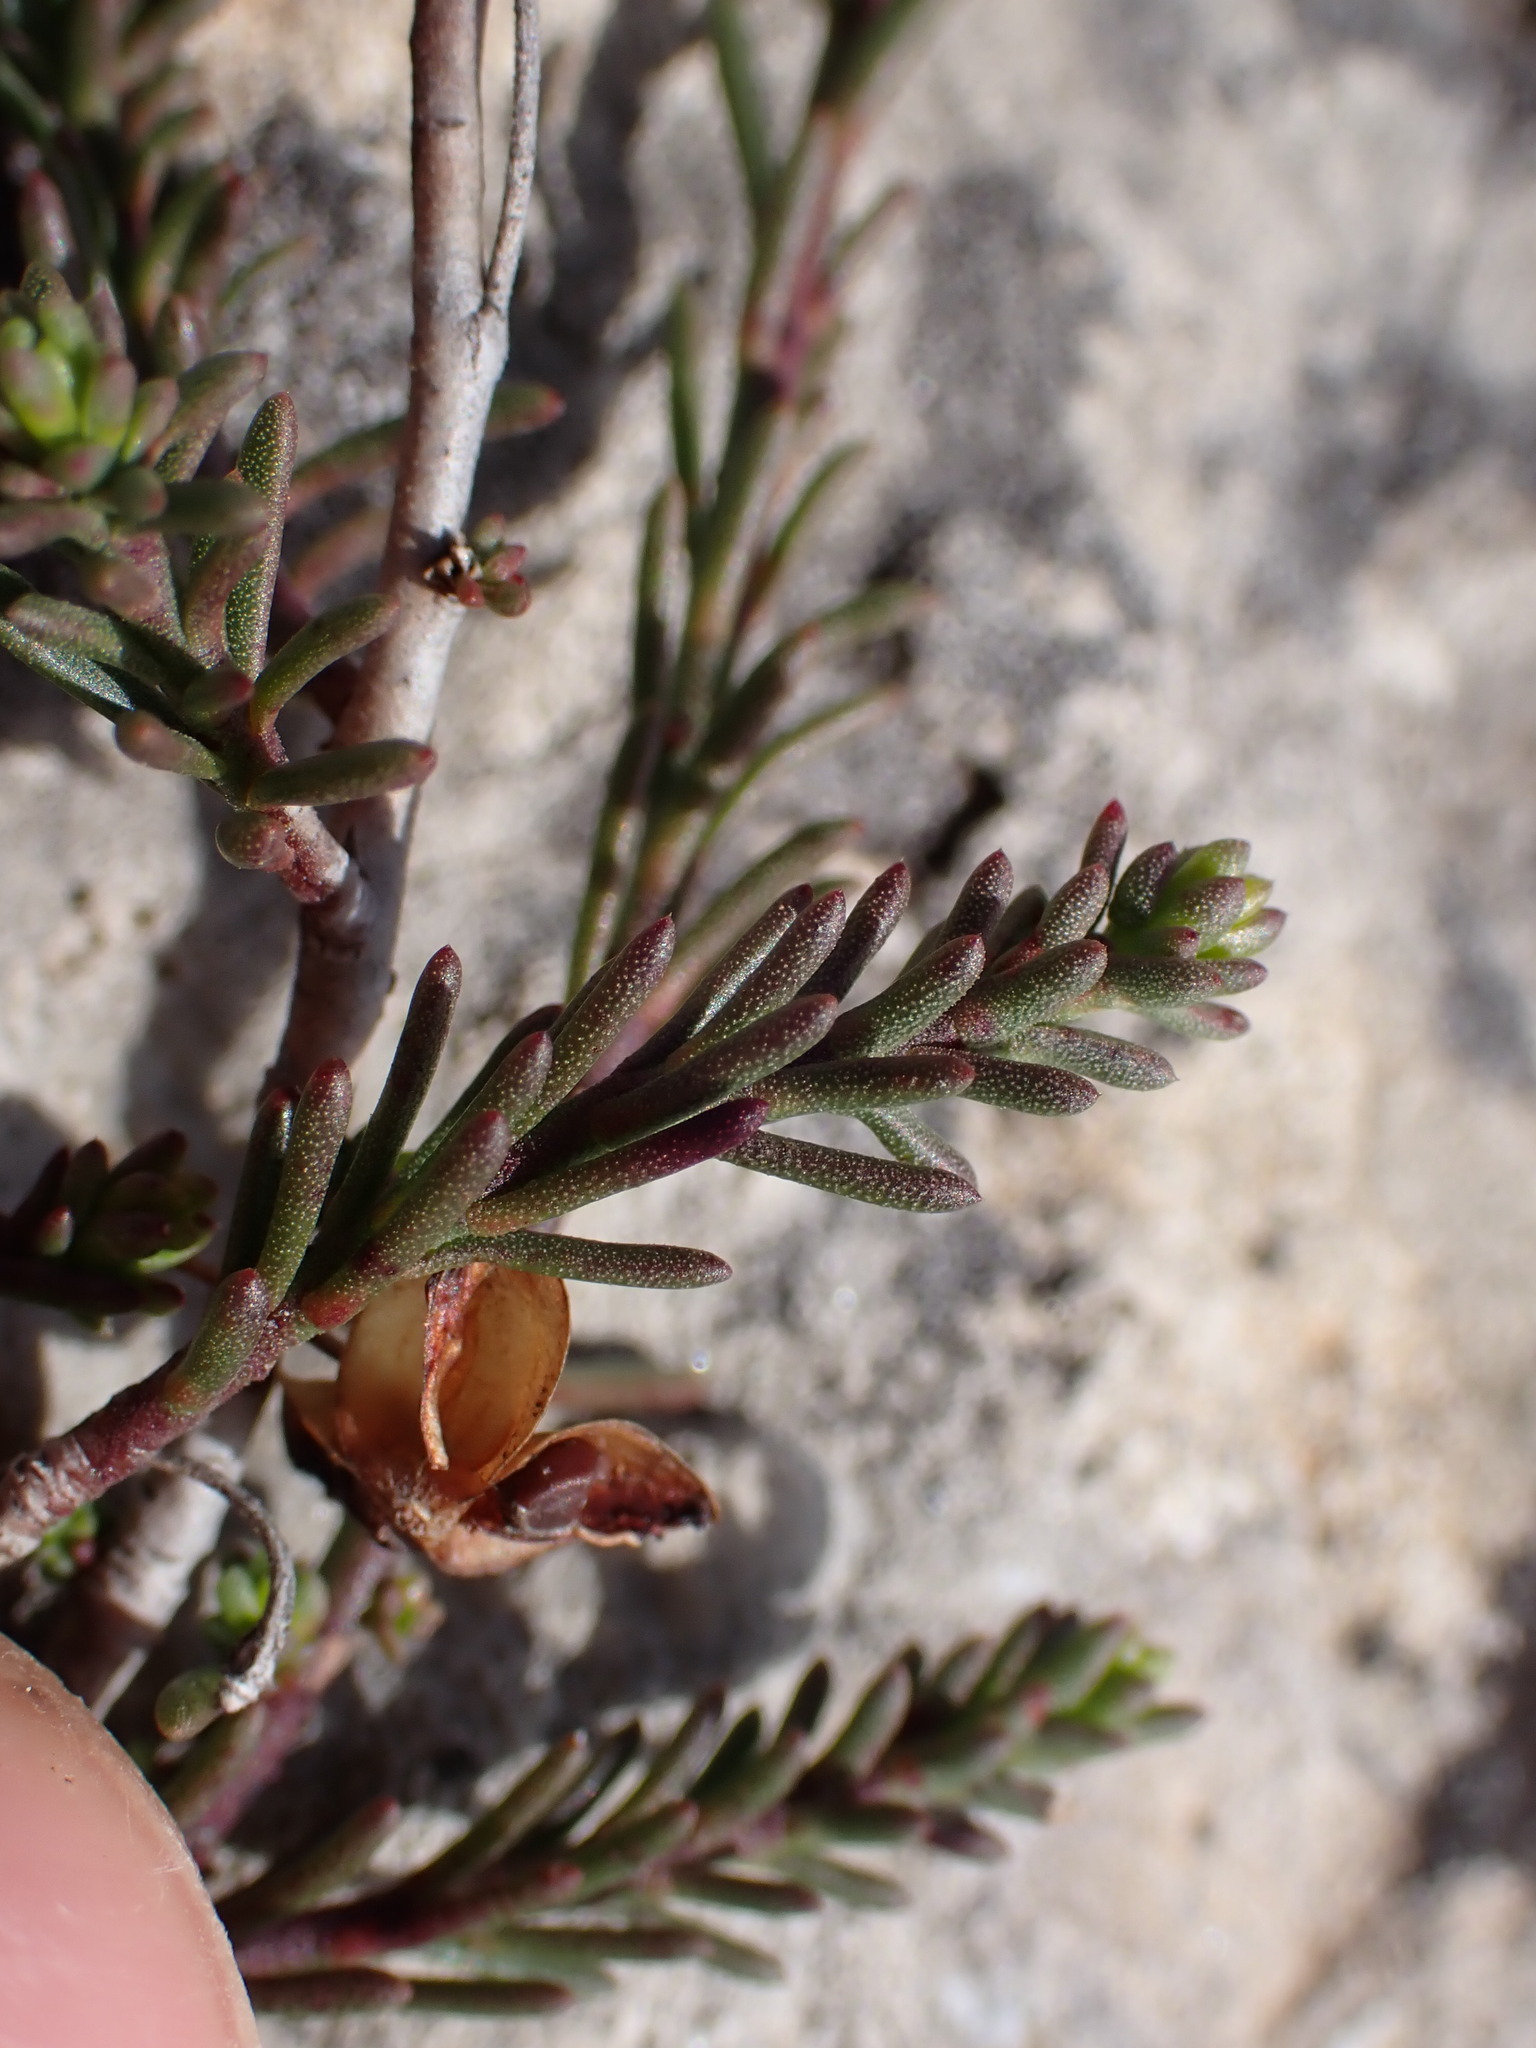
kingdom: Plantae
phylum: Tracheophyta
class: Magnoliopsida
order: Malvales
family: Cistaceae
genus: Fumana
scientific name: Fumana ericifolia
